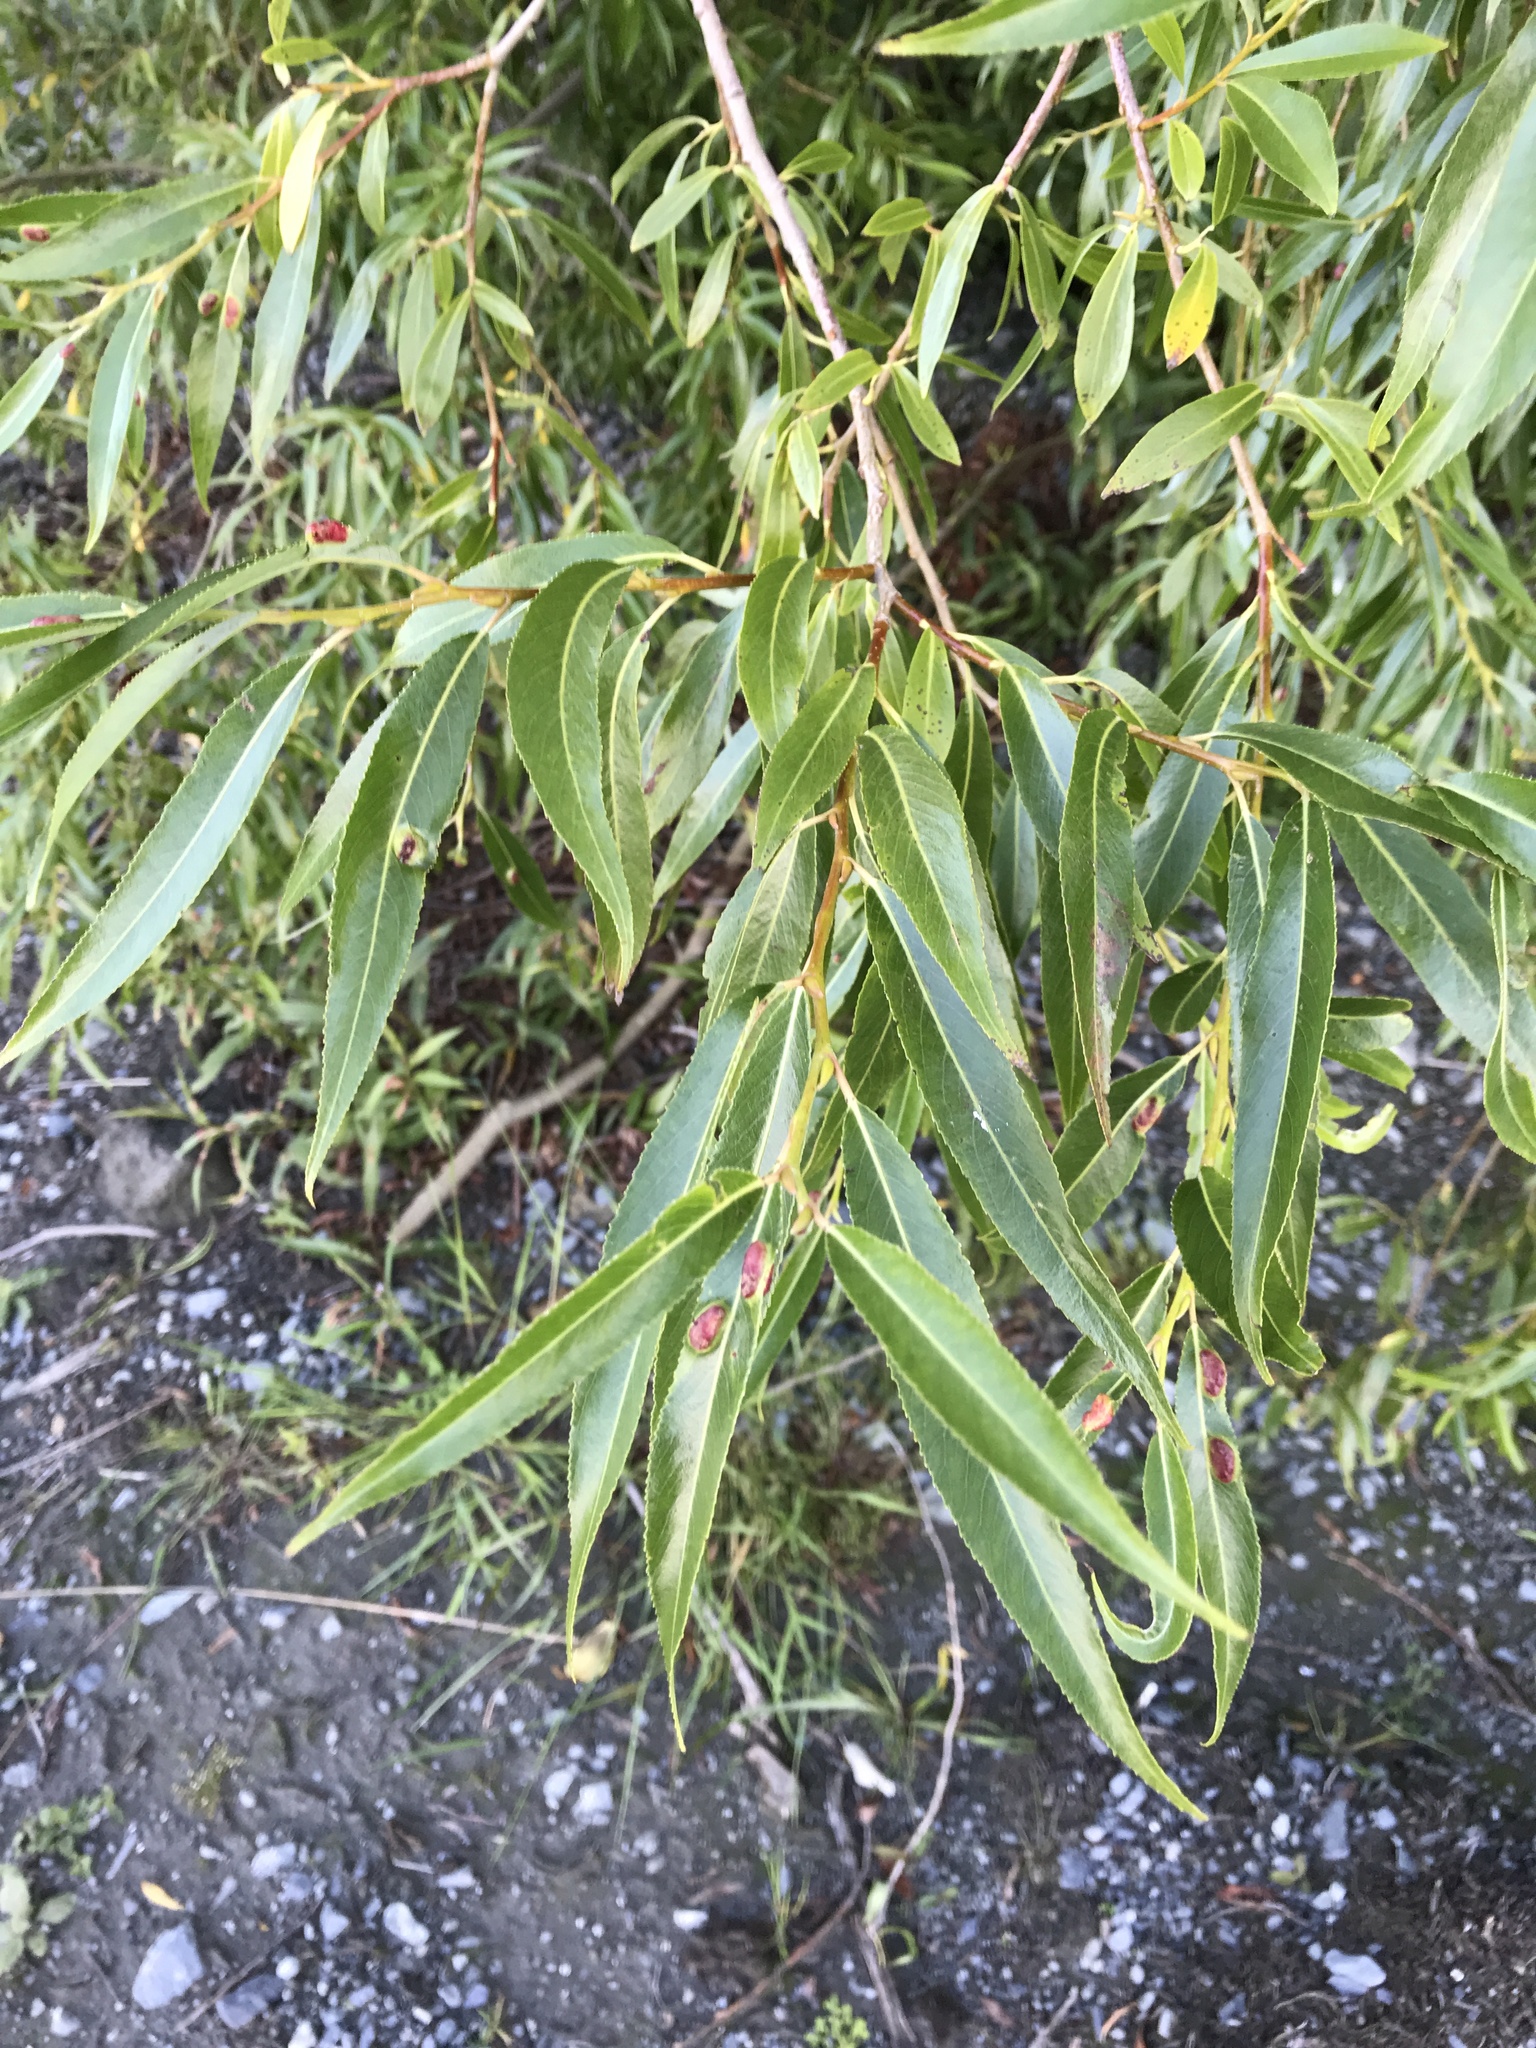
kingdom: Plantae
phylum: Tracheophyta
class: Magnoliopsida
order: Malpighiales
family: Salicaceae
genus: Salix
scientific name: Salix fragilis
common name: Crack willow
